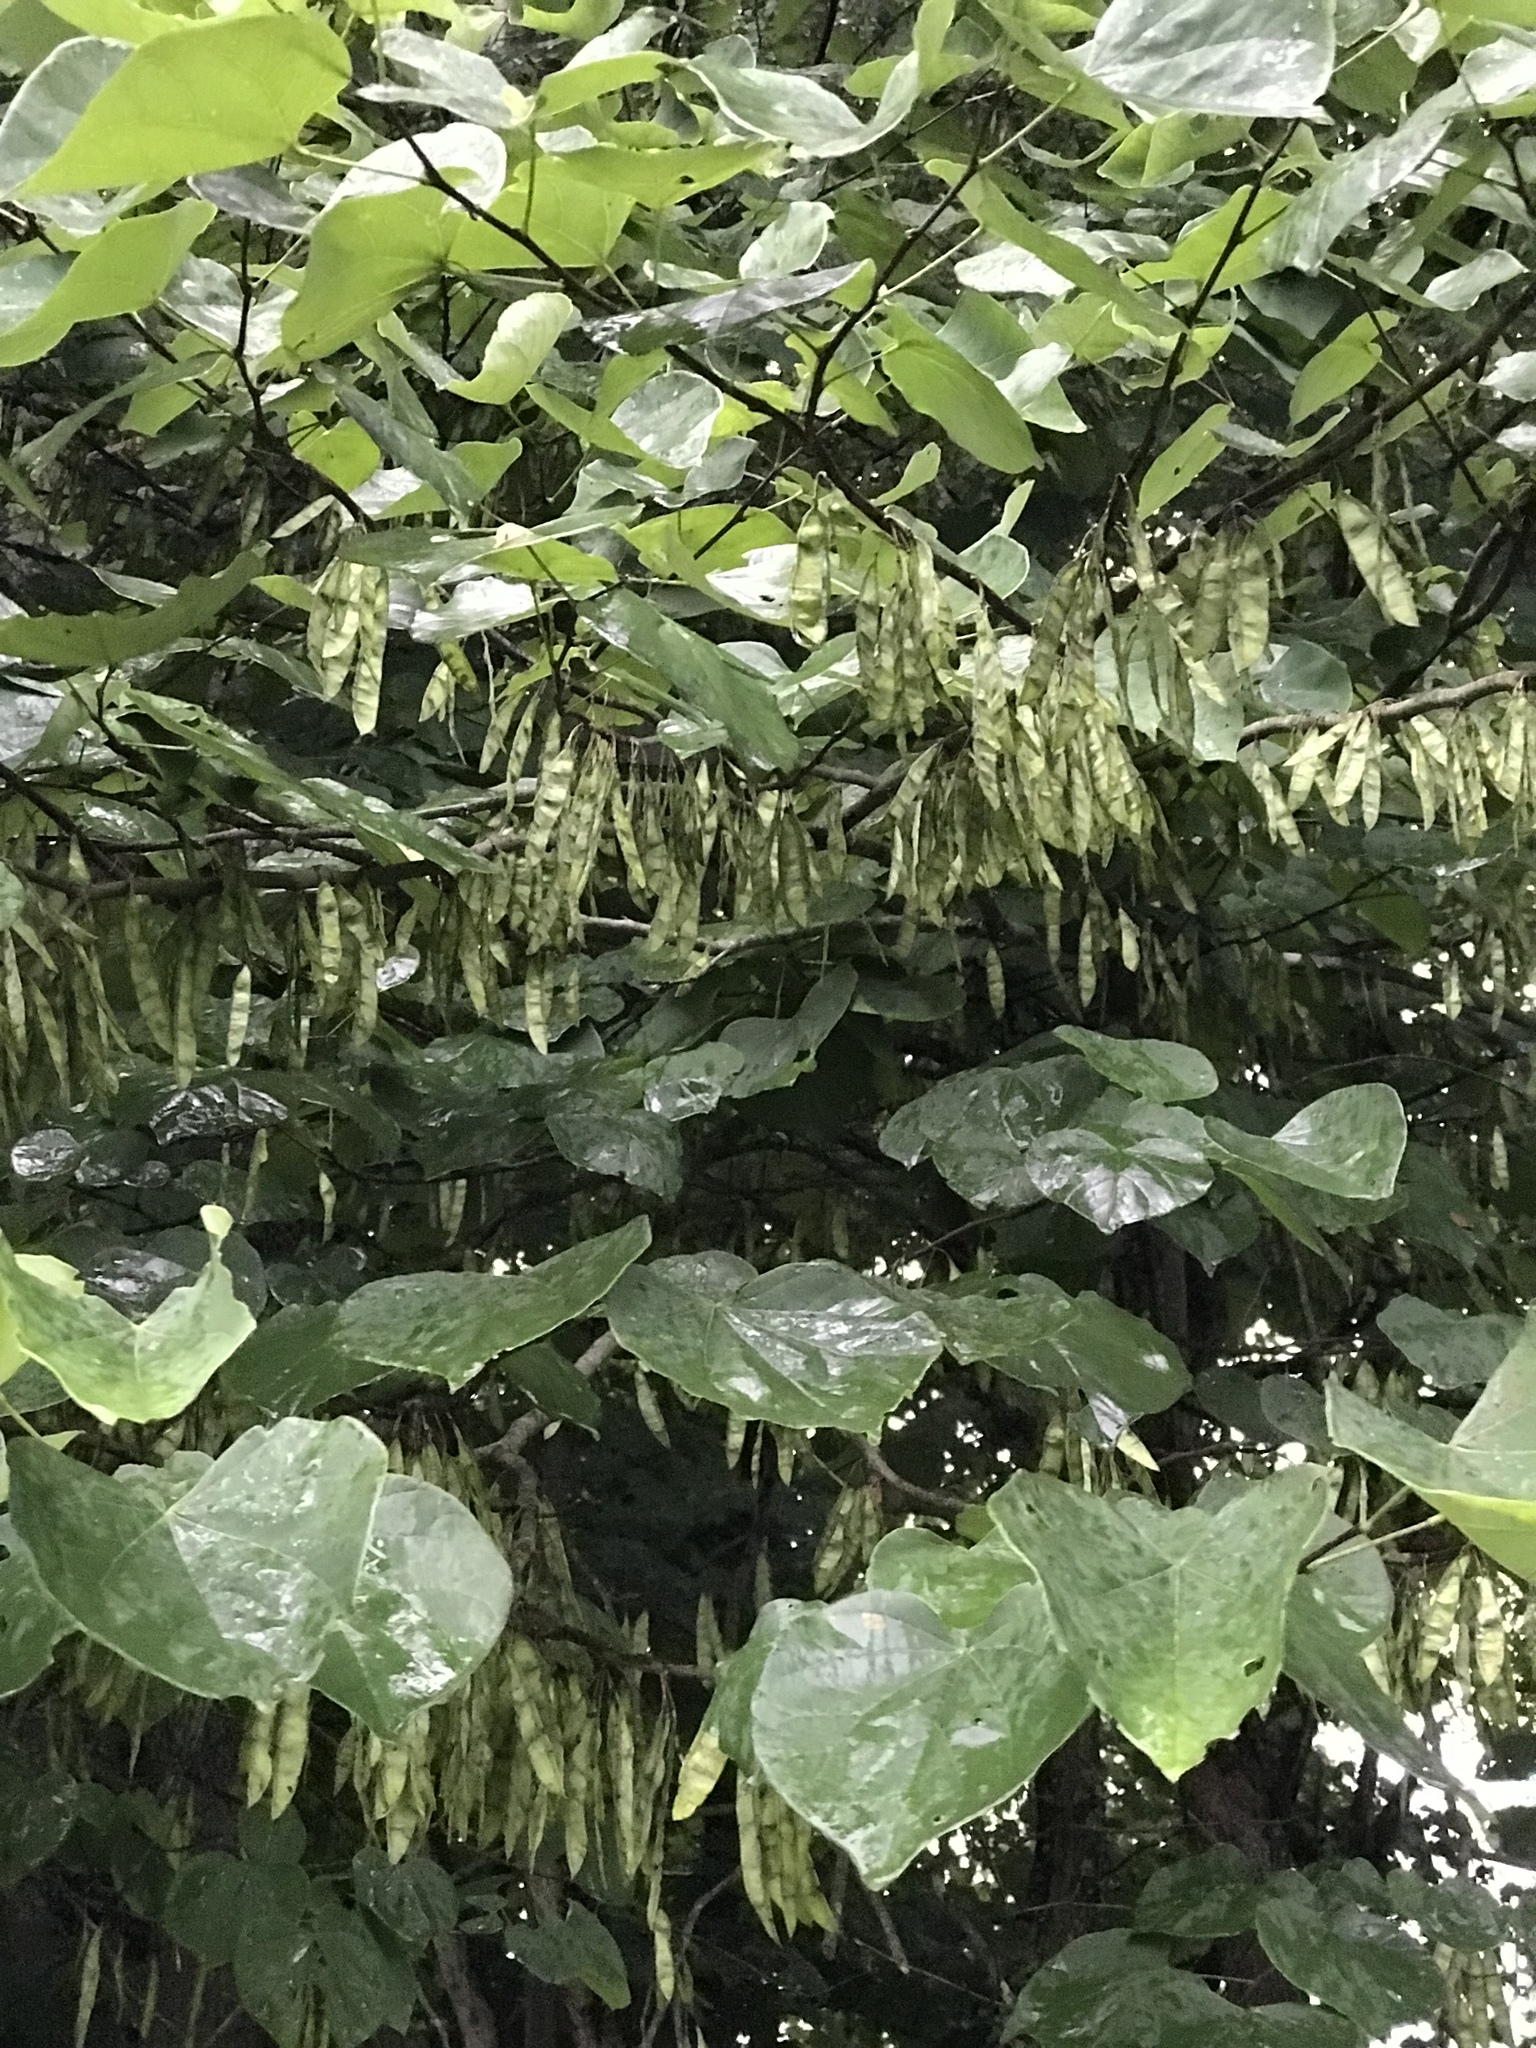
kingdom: Plantae
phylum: Tracheophyta
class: Magnoliopsida
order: Fabales
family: Fabaceae
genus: Cercis
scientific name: Cercis canadensis
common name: Eastern redbud
